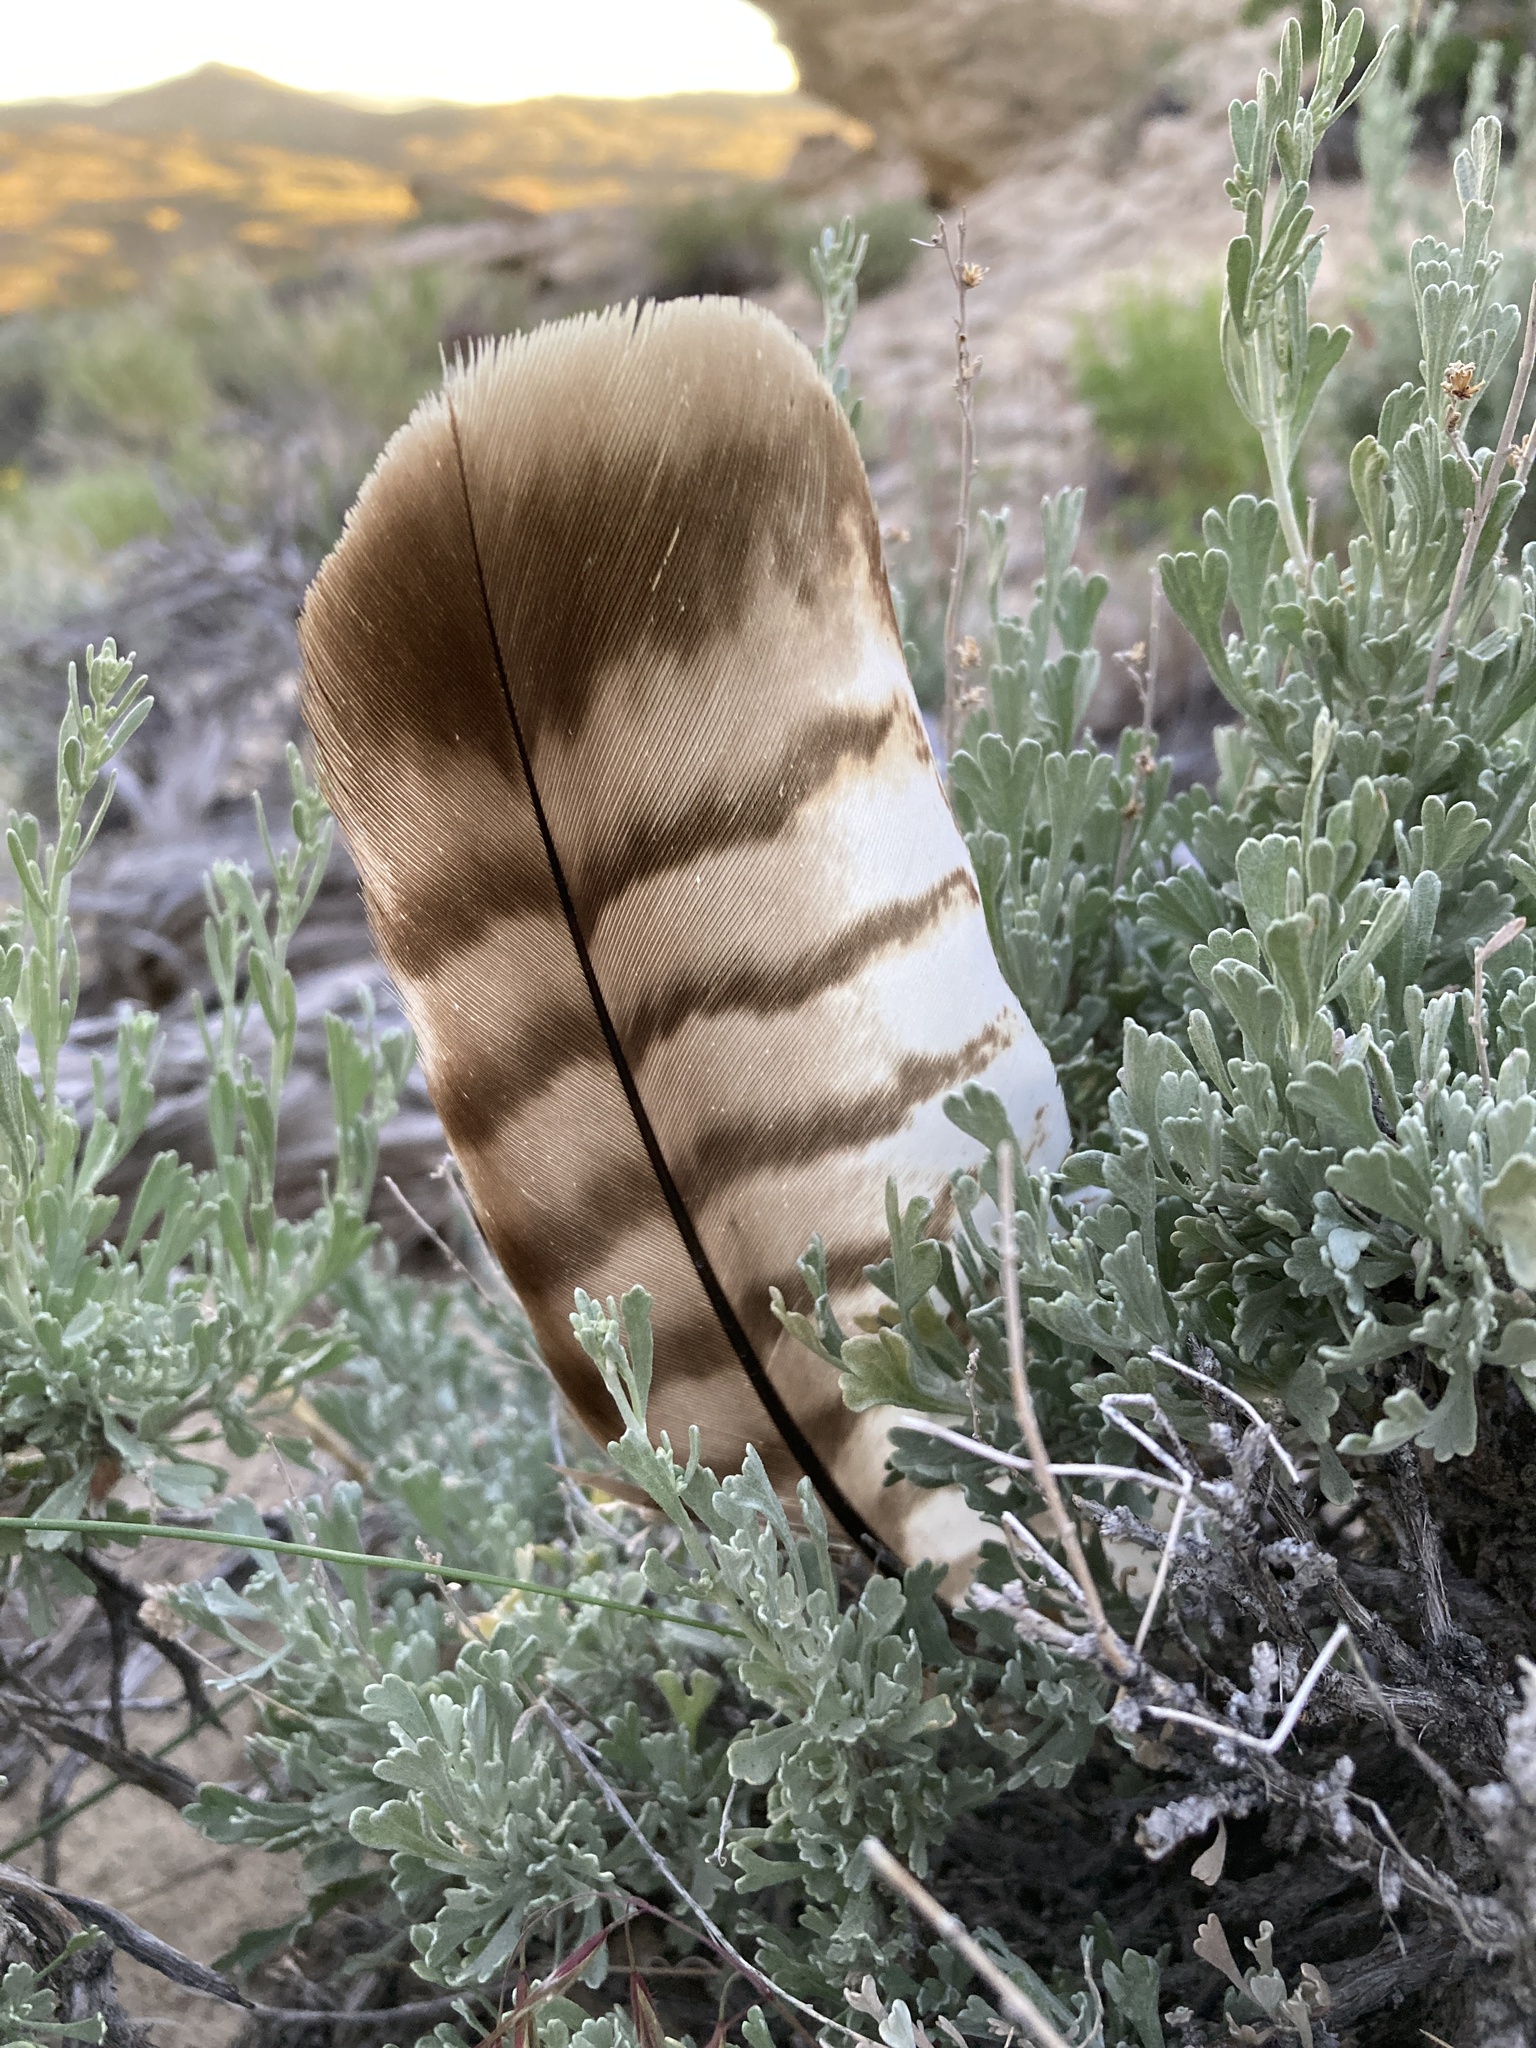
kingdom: Animalia
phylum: Chordata
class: Aves
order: Accipitriformes
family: Accipitridae
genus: Buteo
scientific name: Buteo jamaicensis
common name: Red-tailed hawk
